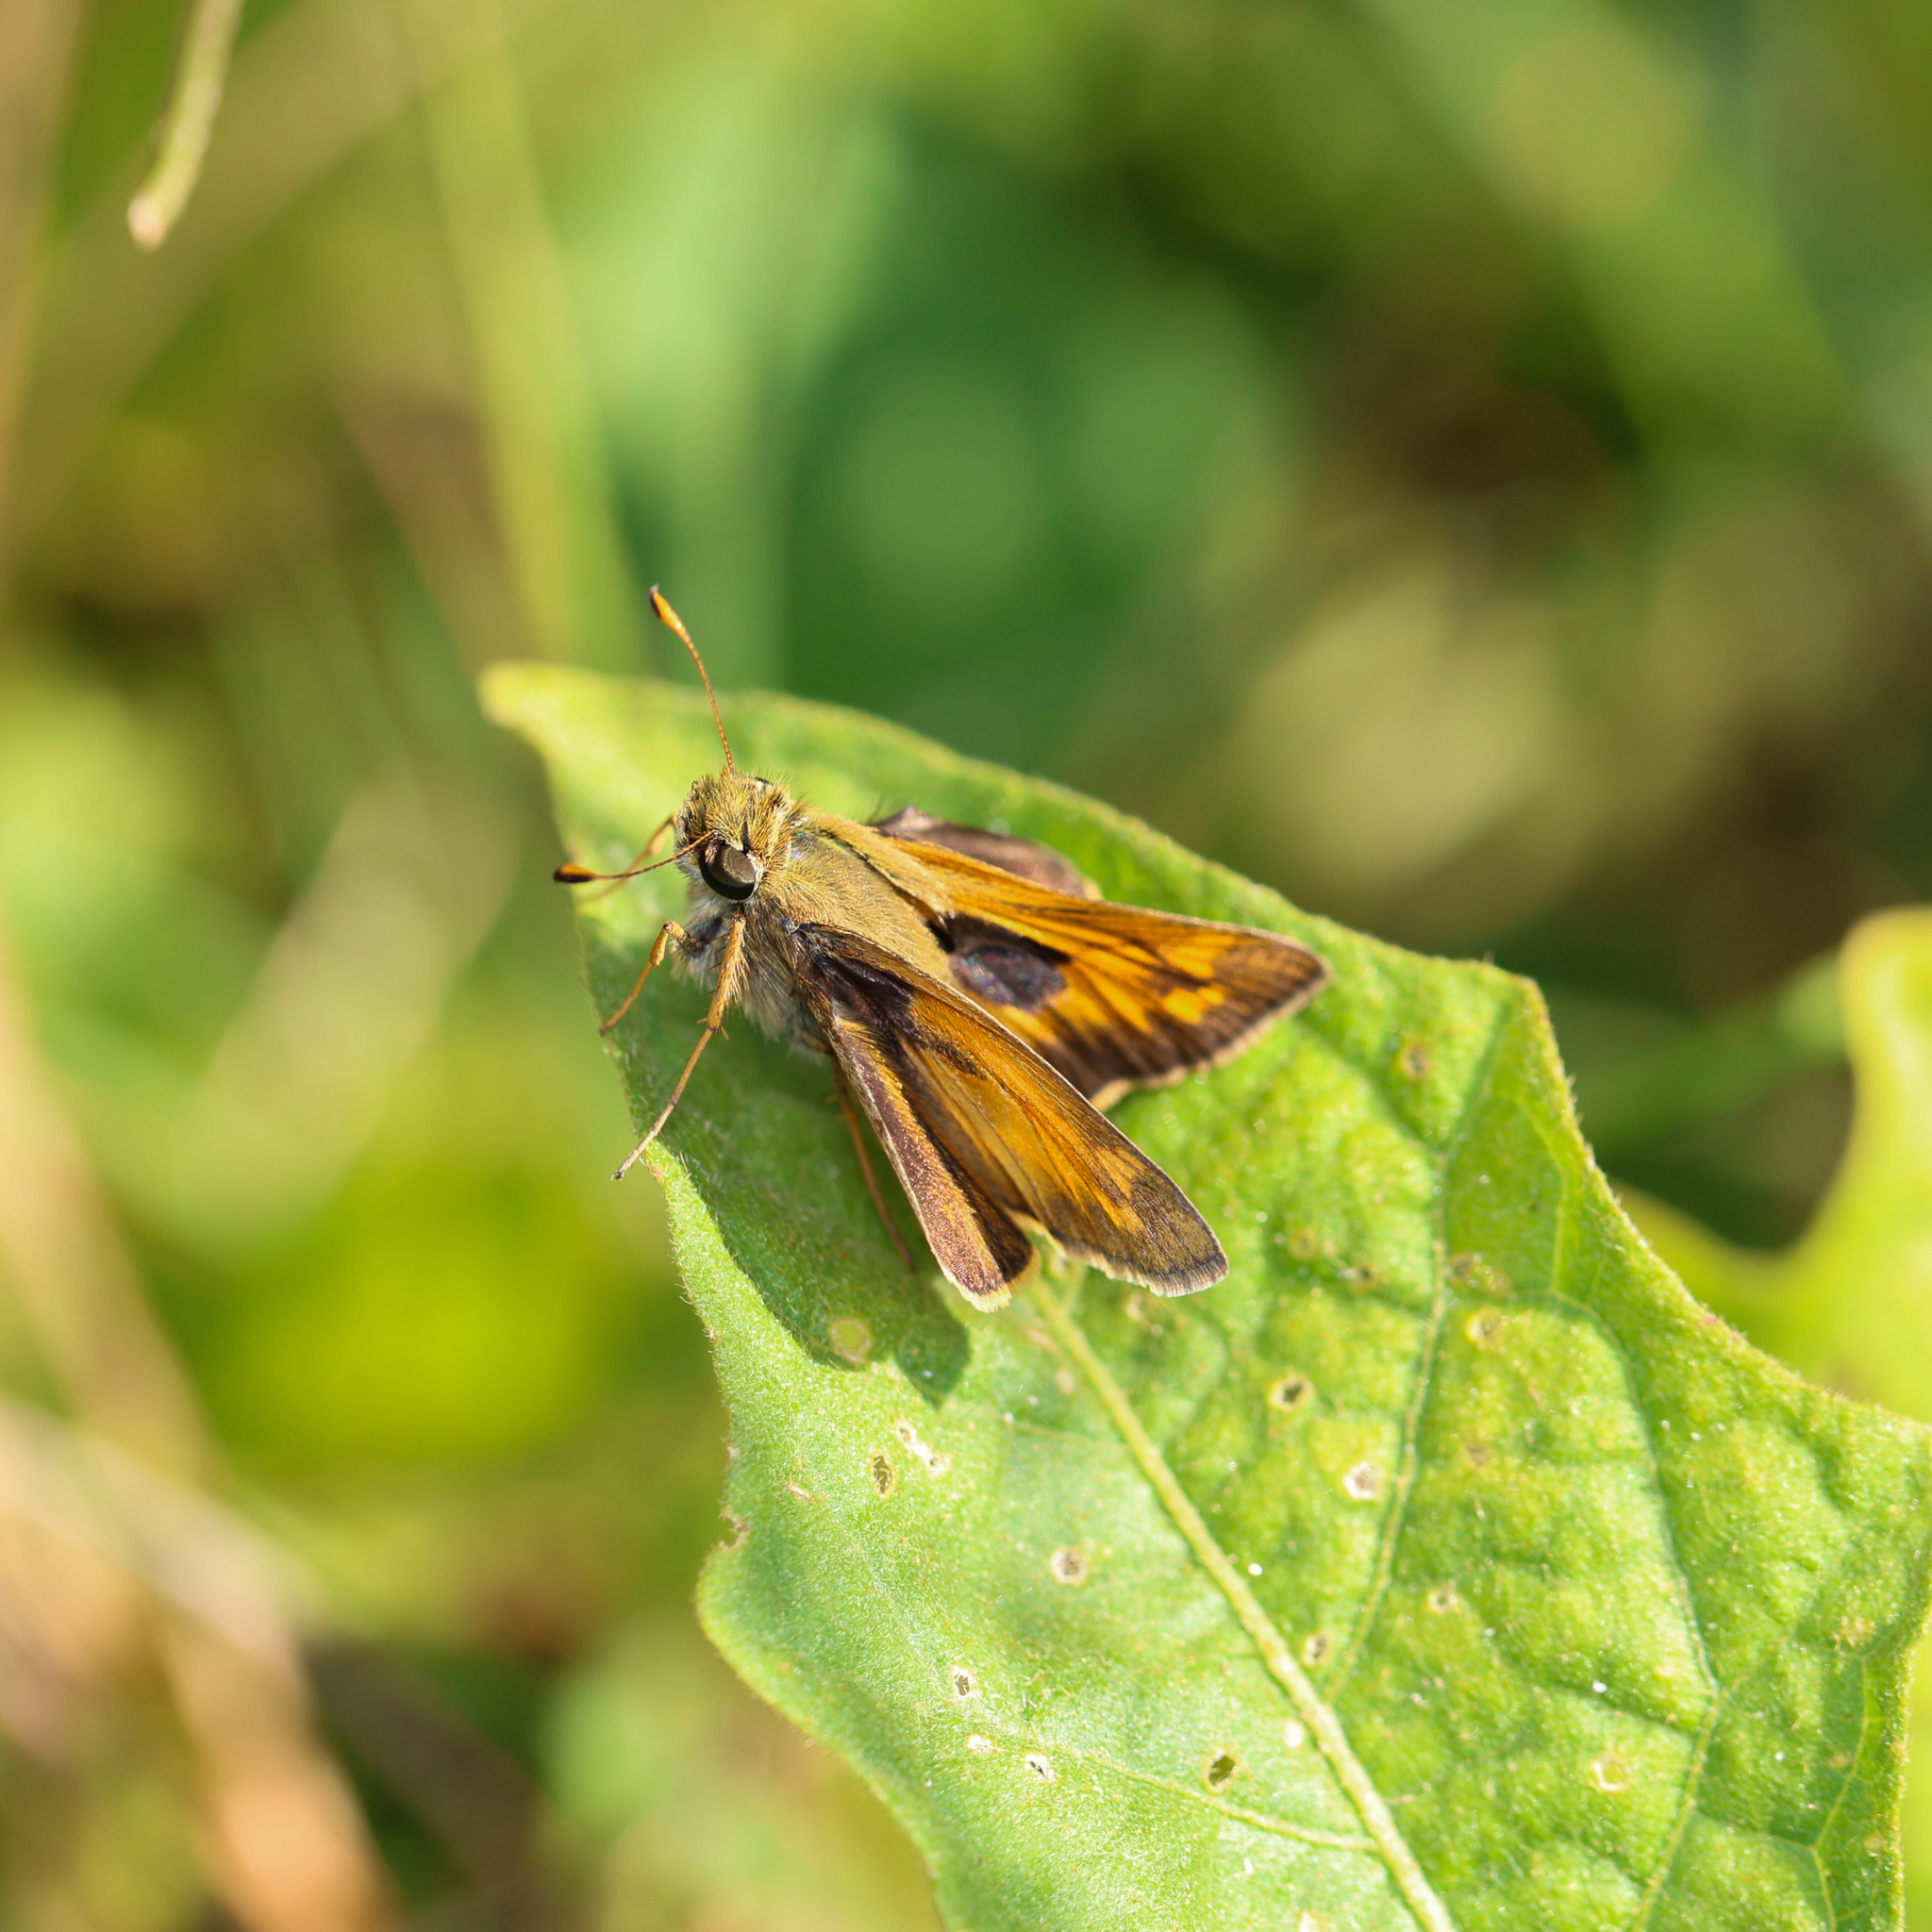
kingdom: Animalia
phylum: Arthropoda
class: Insecta
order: Lepidoptera
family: Hesperiidae
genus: Atalopedes
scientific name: Atalopedes
